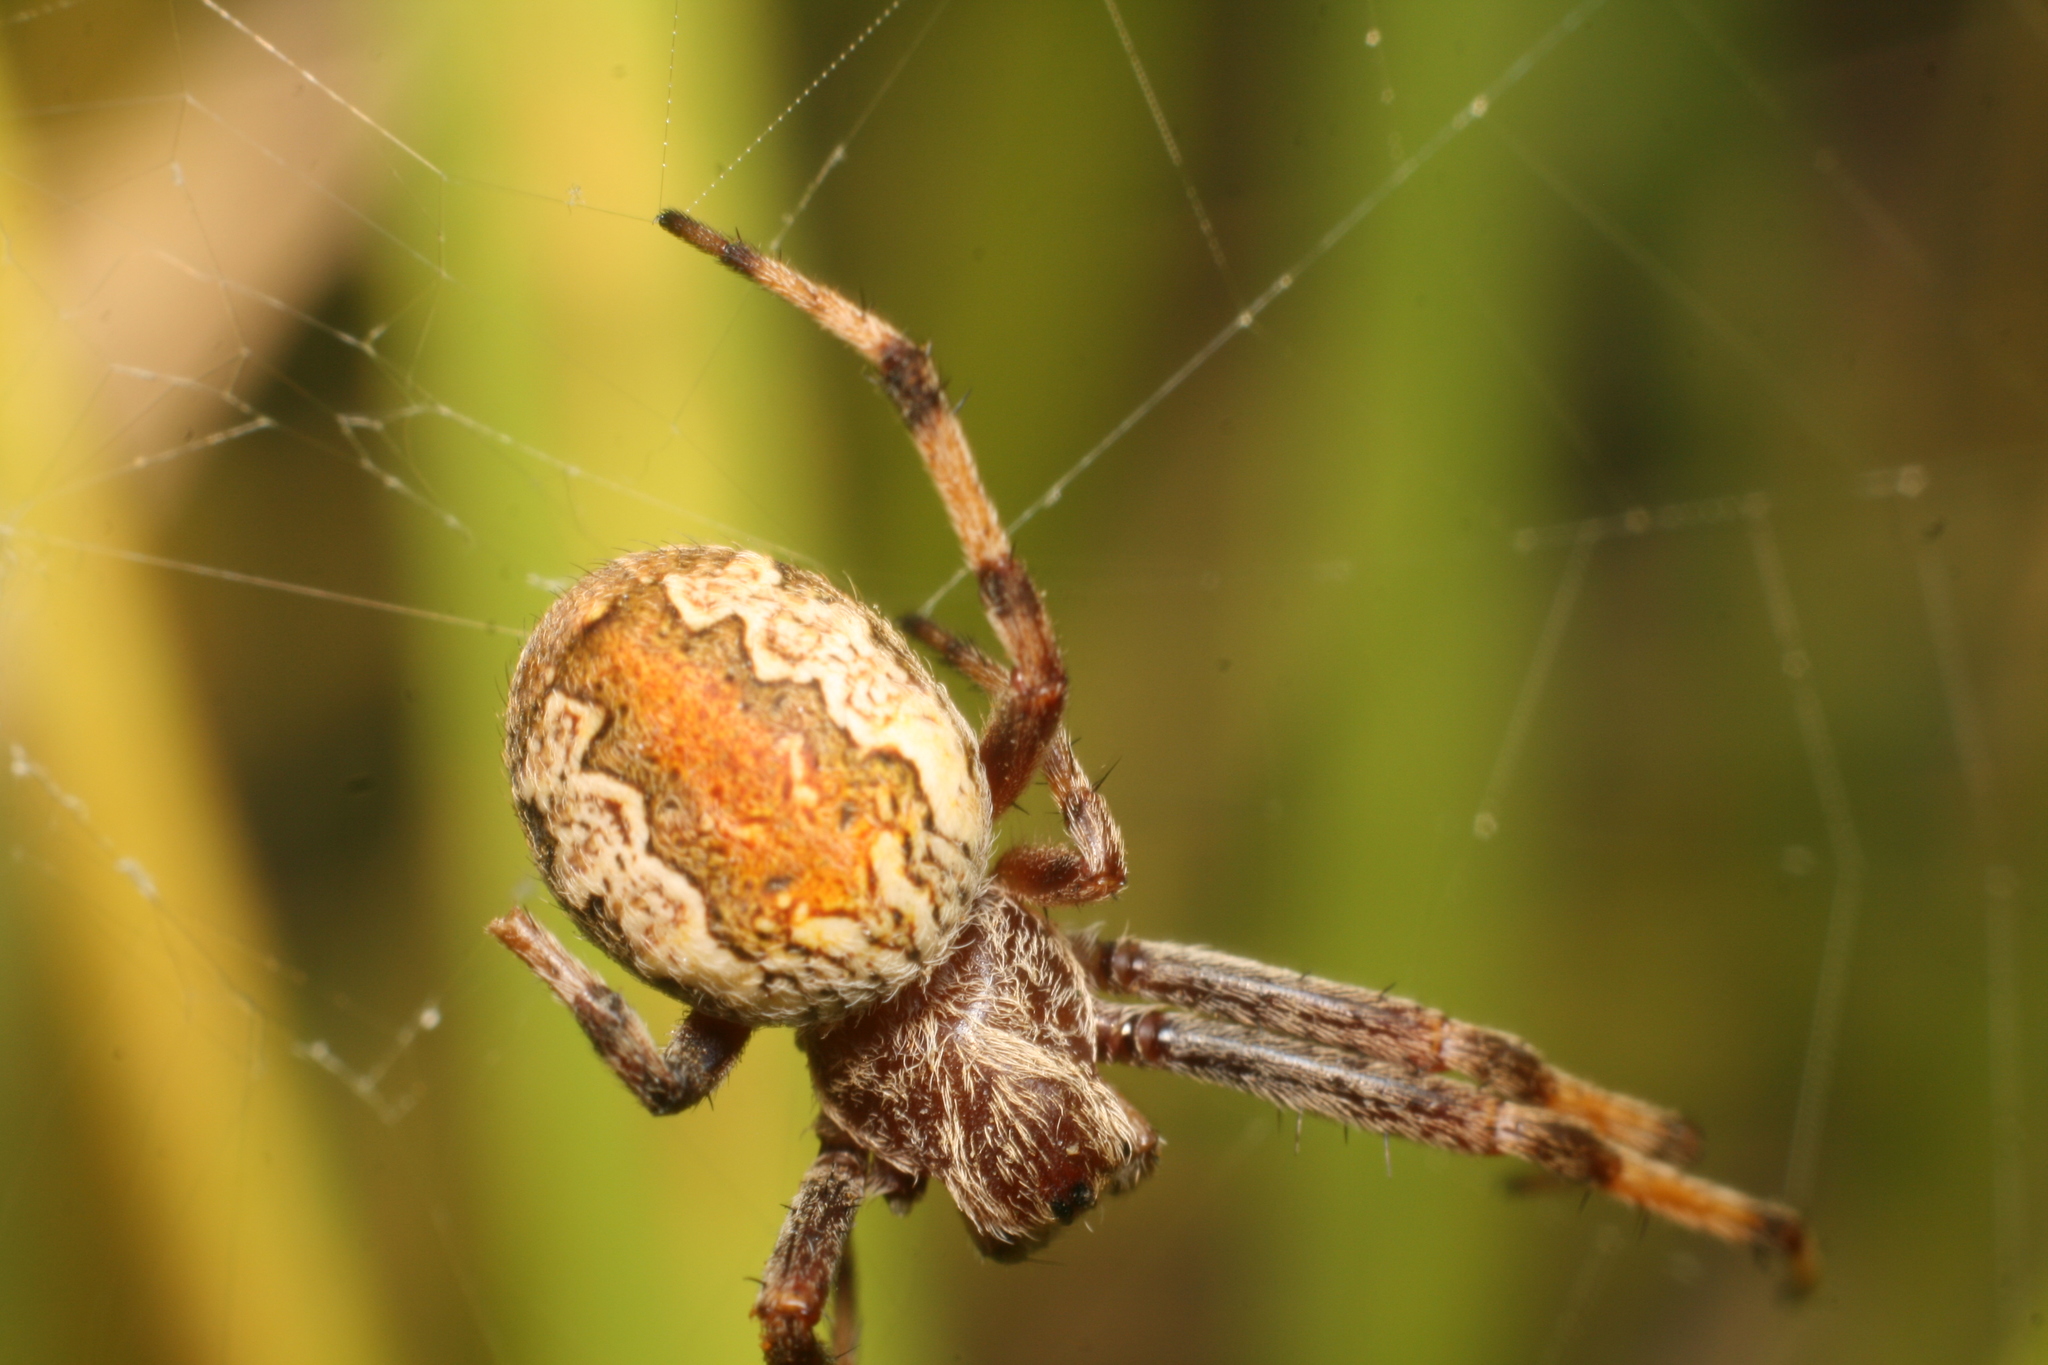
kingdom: Animalia
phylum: Arthropoda
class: Arachnida
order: Araneae
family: Araneidae
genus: Salsa
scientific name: Salsa fuliginata
